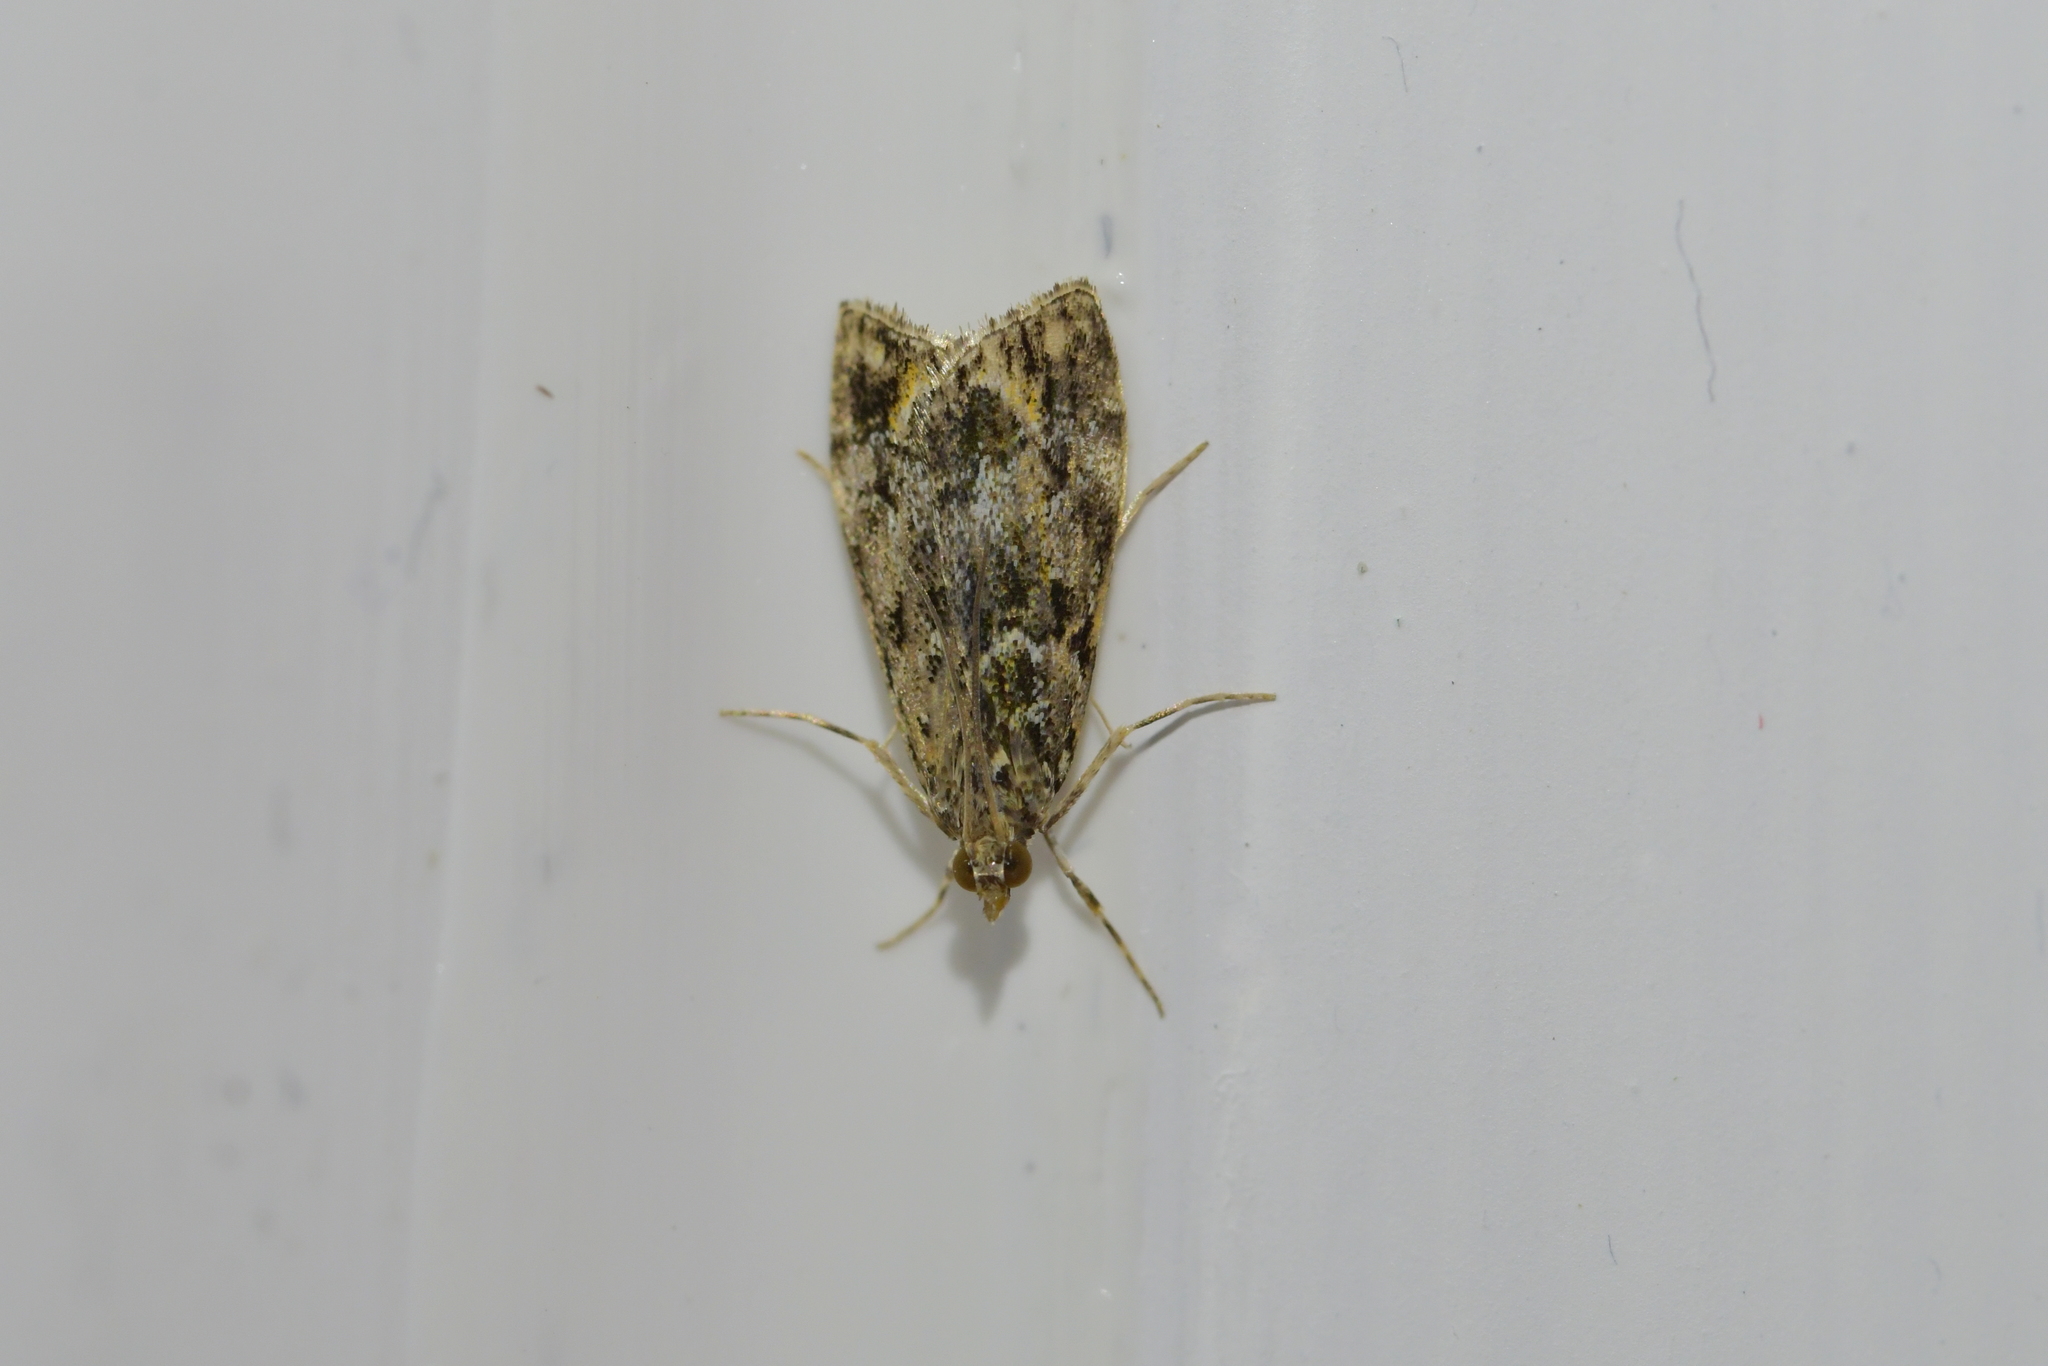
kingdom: Animalia
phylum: Arthropoda
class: Insecta
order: Lepidoptera
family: Crambidae
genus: Eudonia
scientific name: Eudonia minualis
